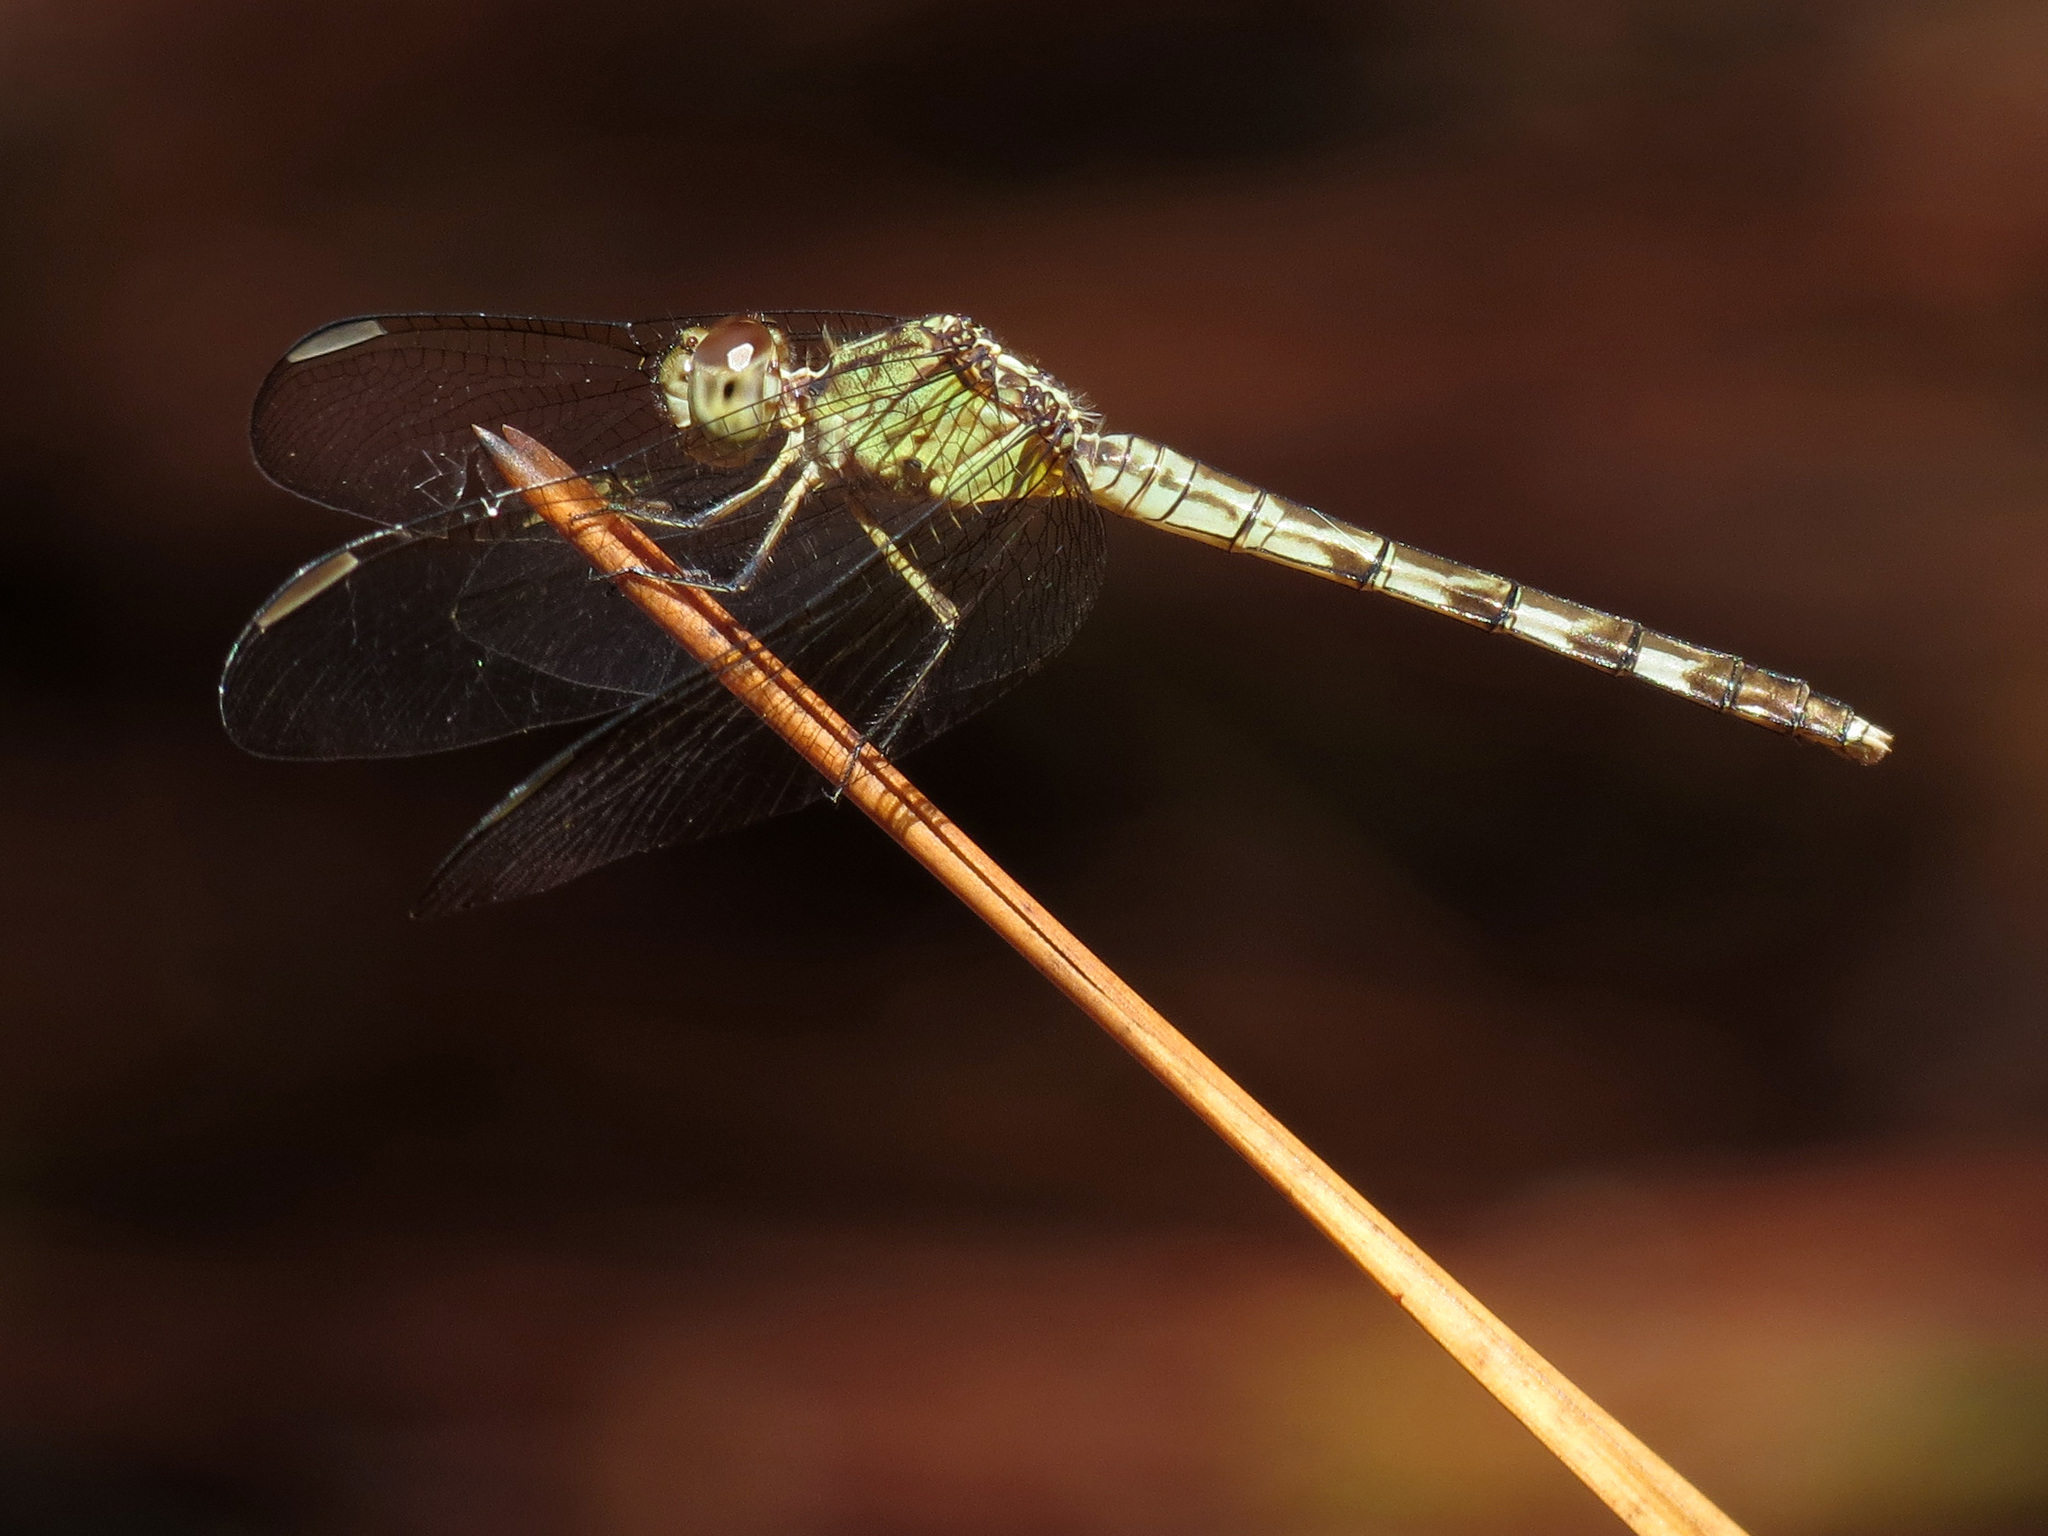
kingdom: Animalia
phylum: Arthropoda
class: Insecta
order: Odonata
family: Libellulidae
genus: Erythrodiplax
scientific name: Erythrodiplax umbrata
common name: Band-winged dragonlet
